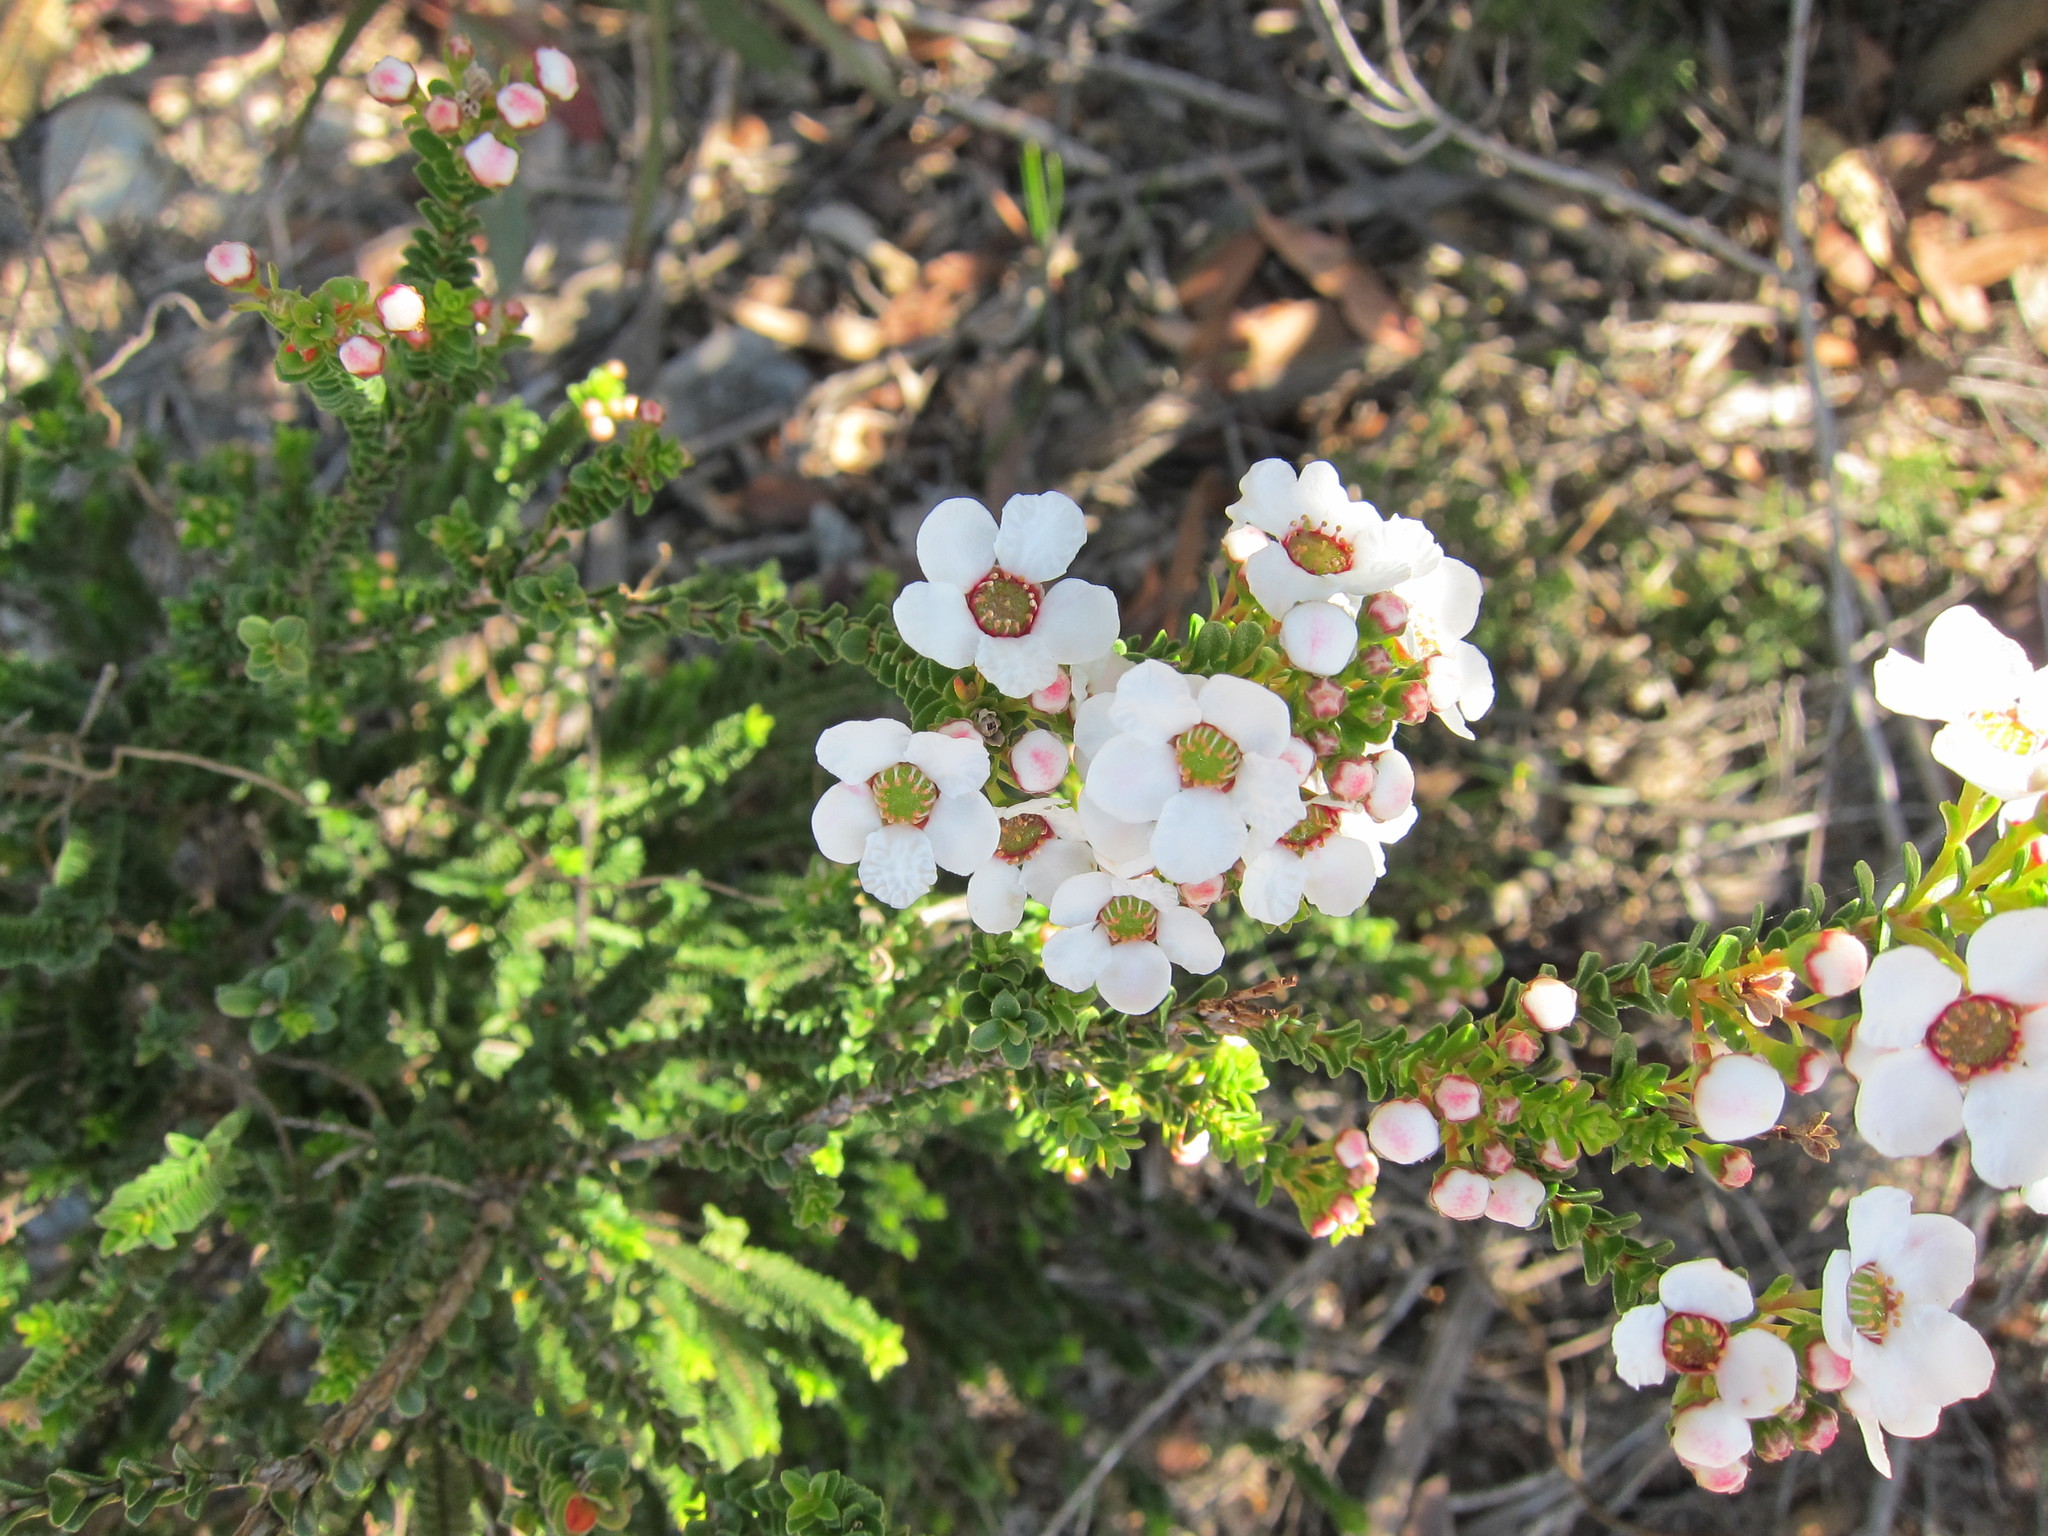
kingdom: Plantae
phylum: Tracheophyta
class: Magnoliopsida
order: Myrtales
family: Myrtaceae
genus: Anticoryne
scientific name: Anticoryne ovalifolia
